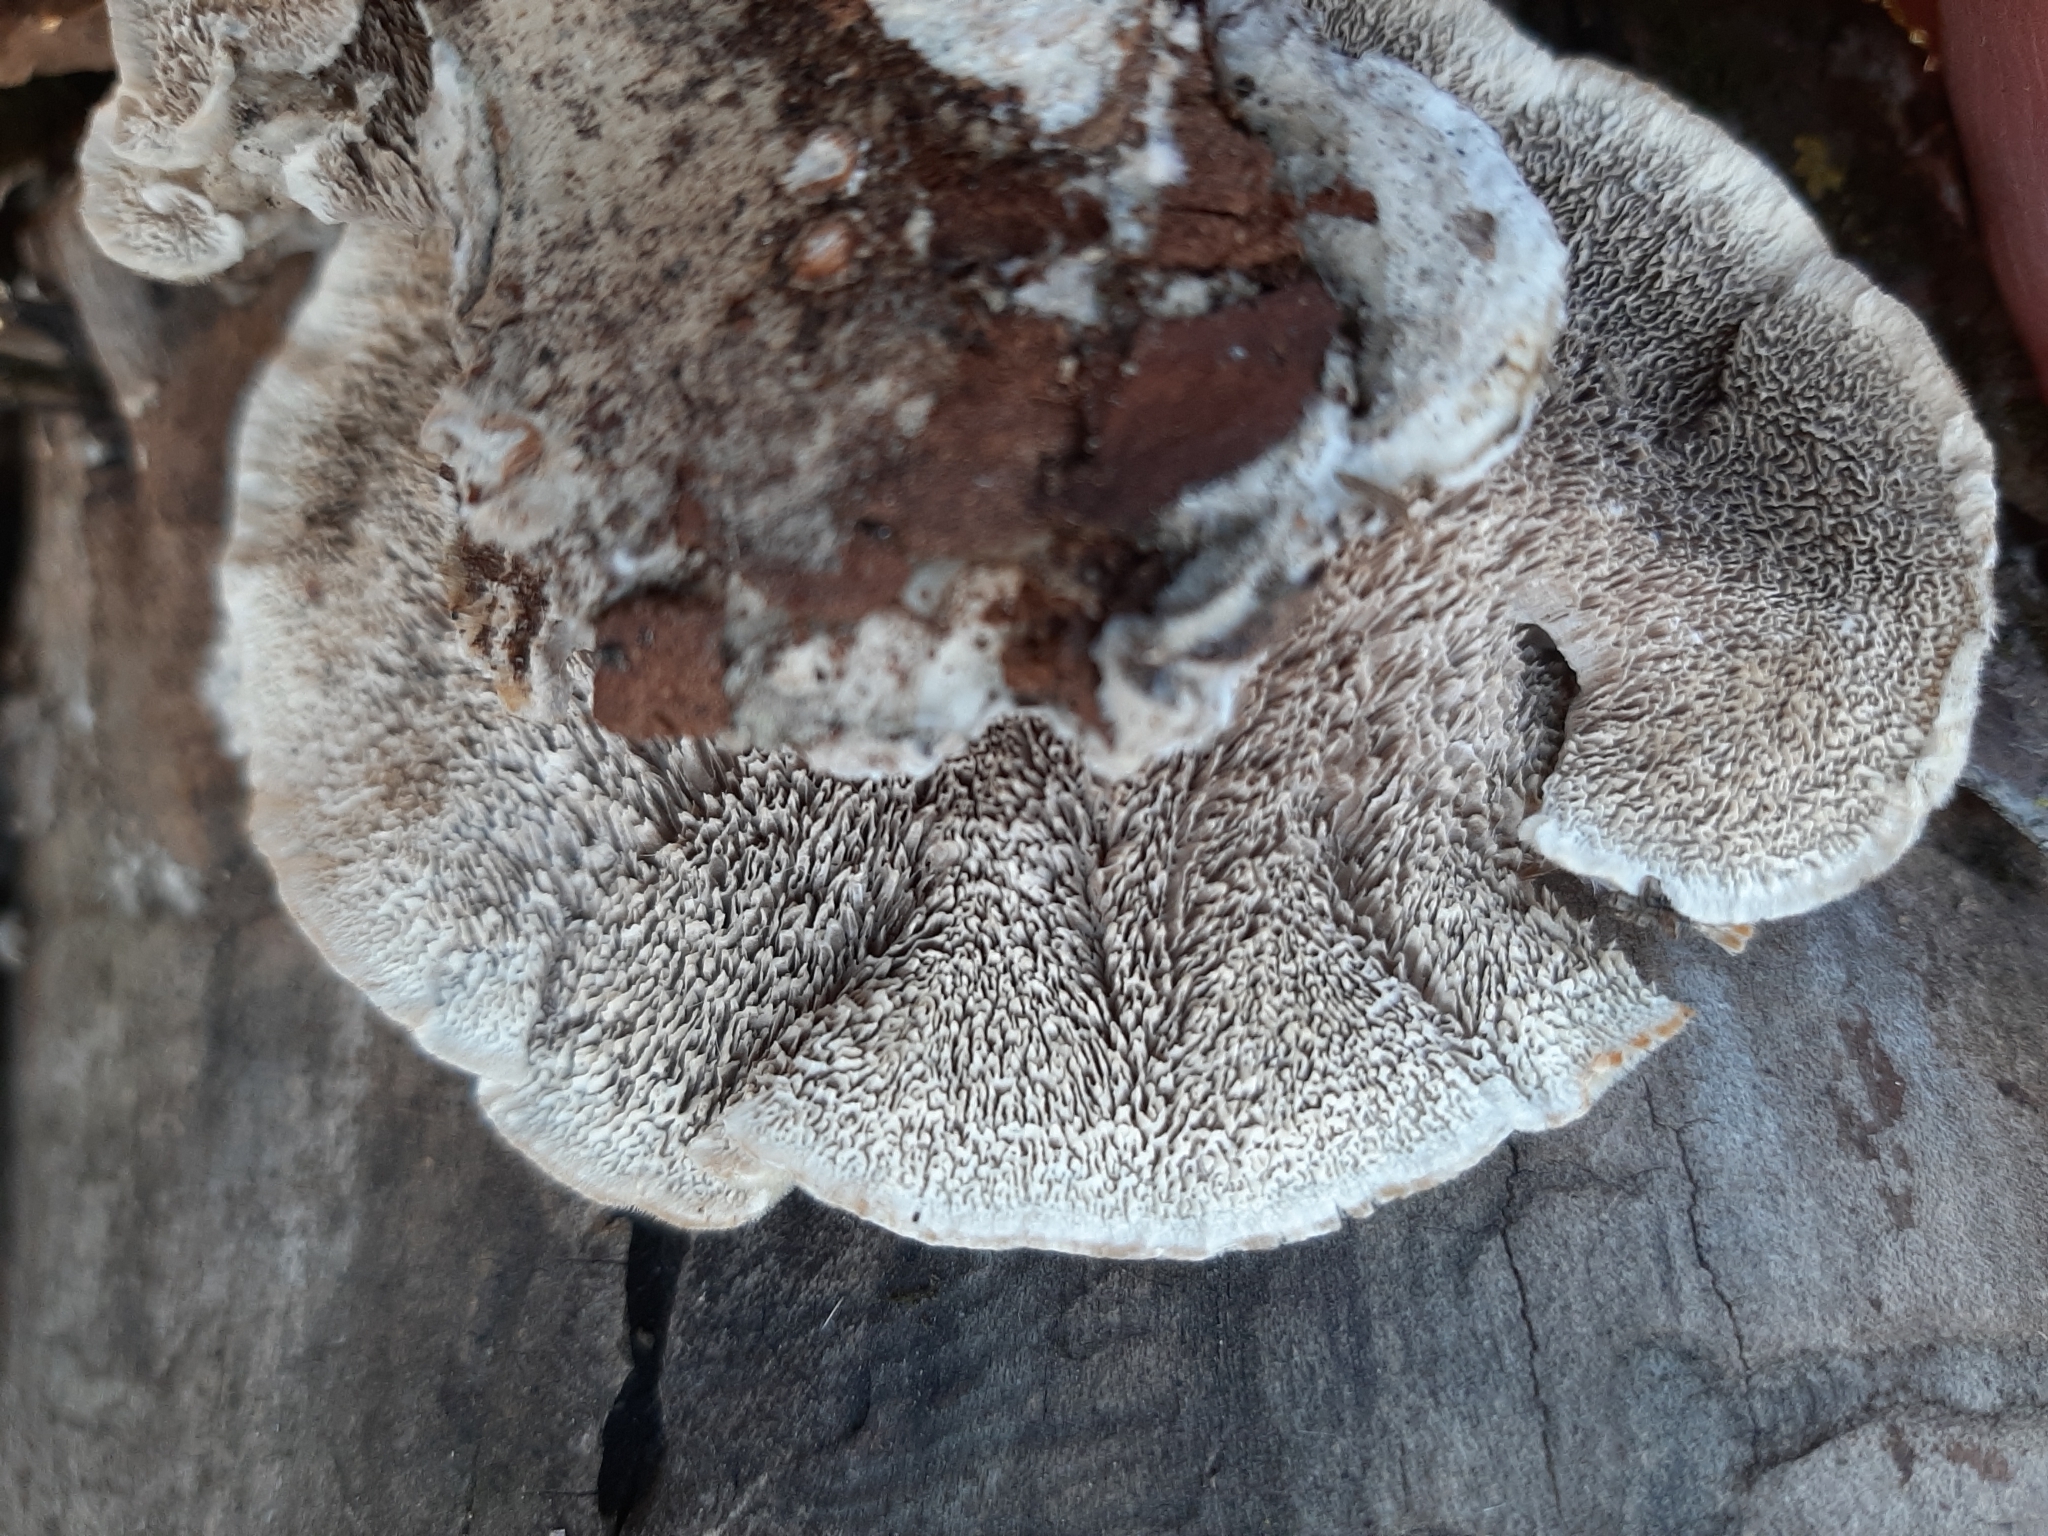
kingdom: Fungi
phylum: Basidiomycota
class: Agaricomycetes
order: Polyporales
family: Cerrenaceae
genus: Cerrena
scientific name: Cerrena unicolor
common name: Mossy maze polypore
